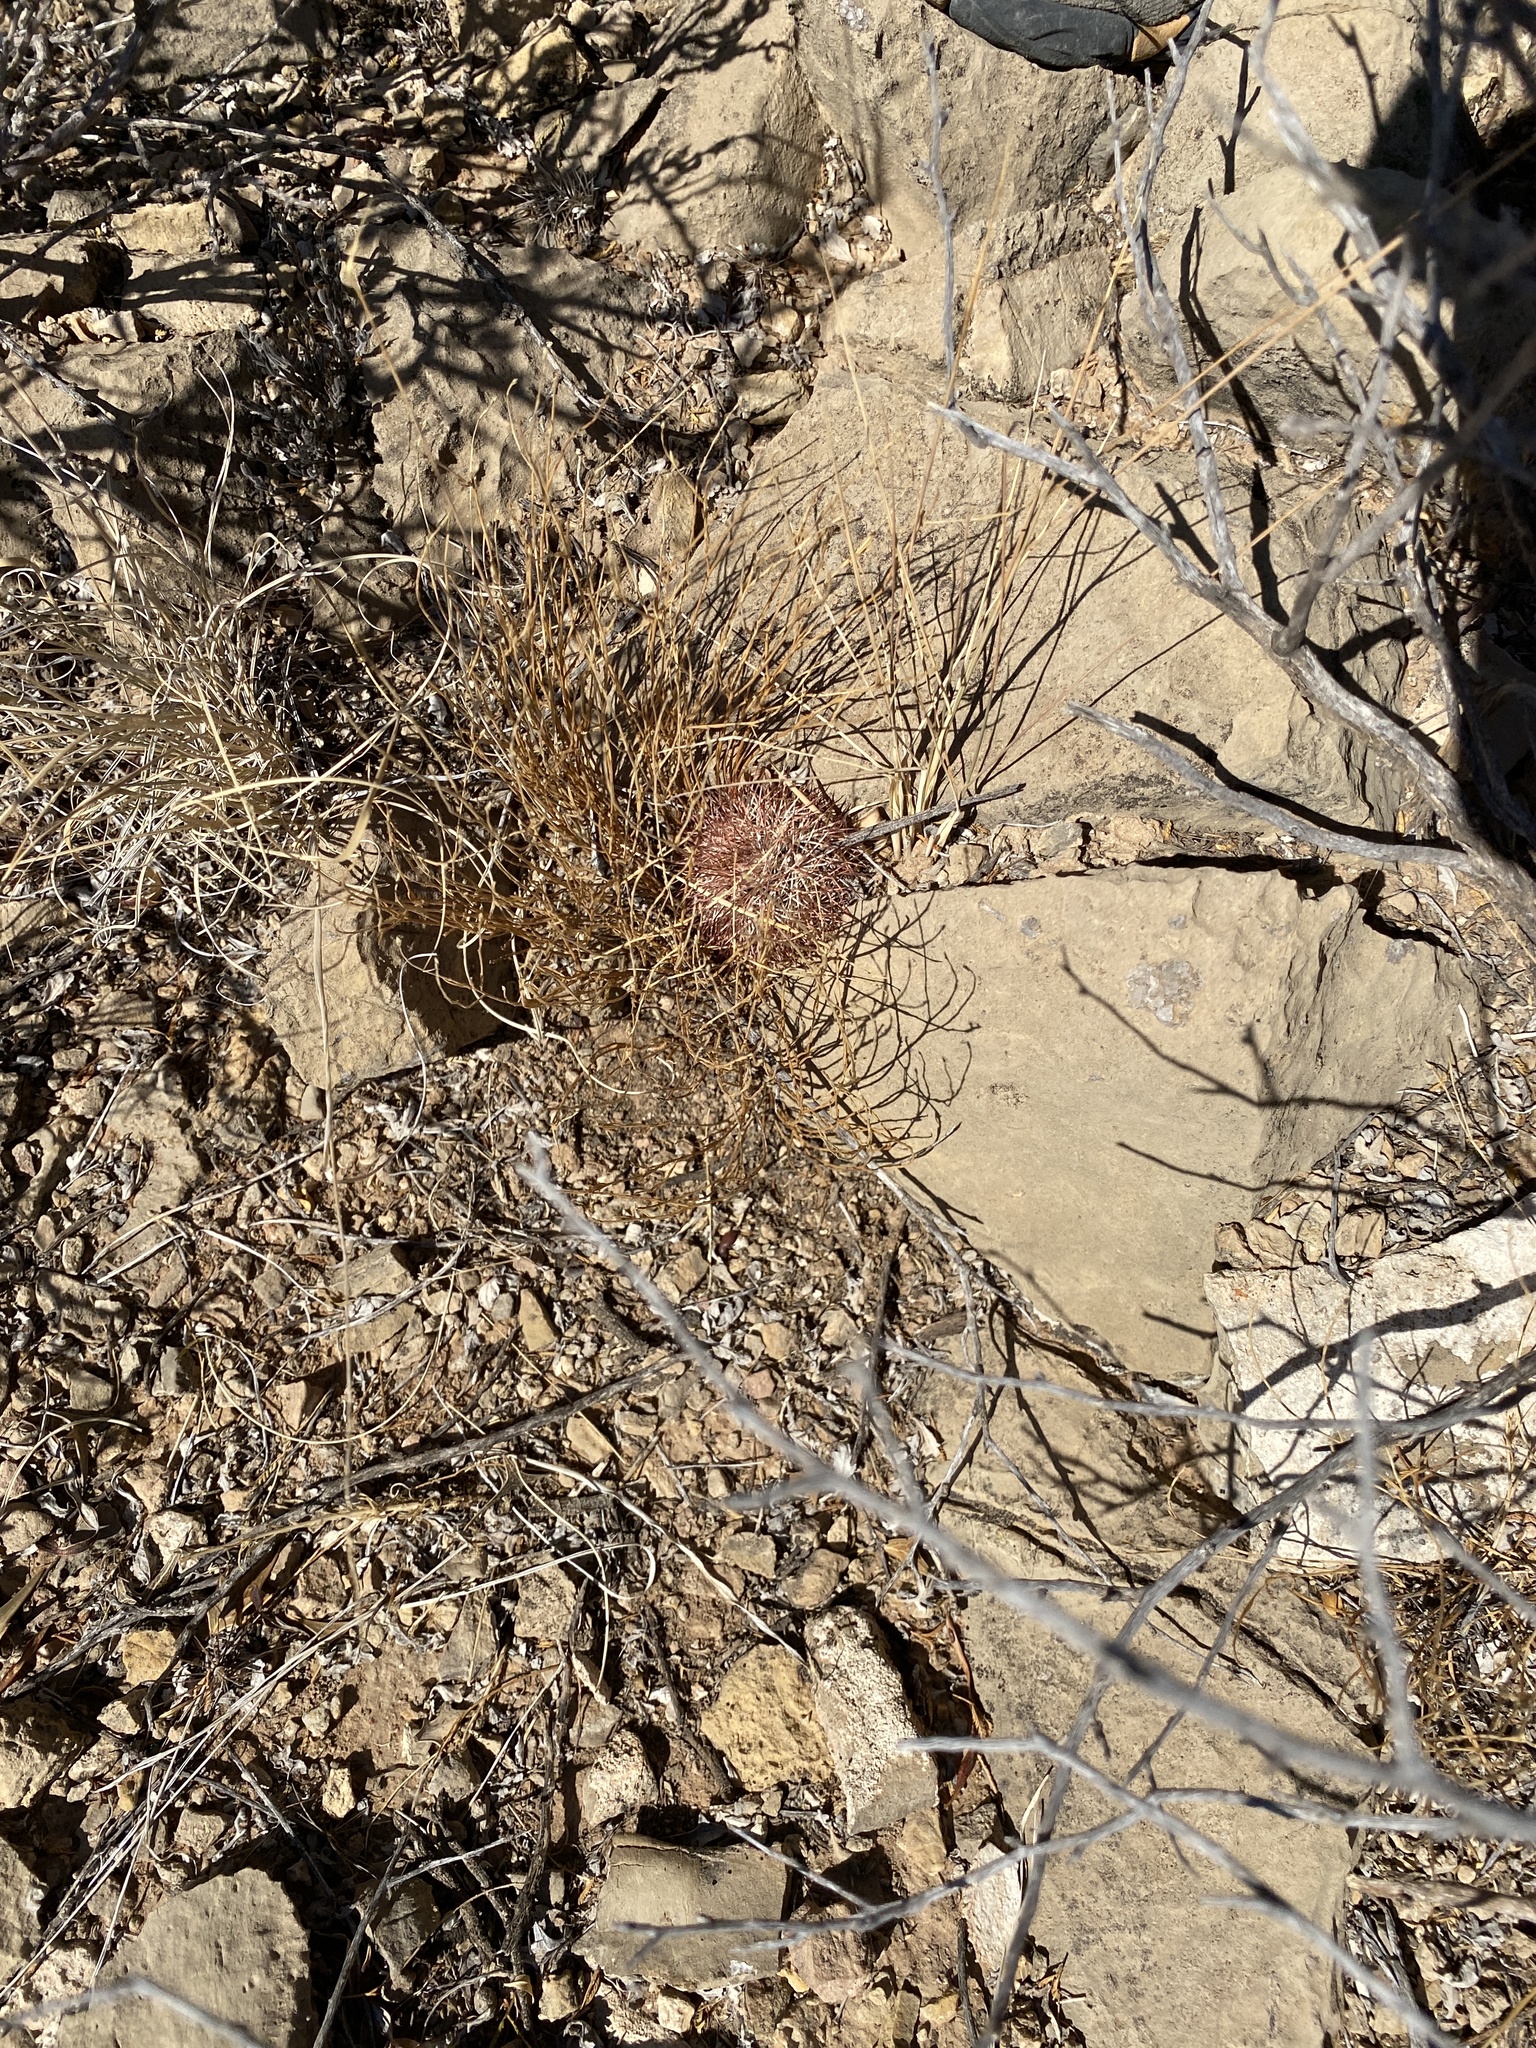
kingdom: Plantae
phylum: Tracheophyta
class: Magnoliopsida
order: Caryophyllales
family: Cactaceae
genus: Echinocereus
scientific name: Echinocereus dasyacanthus
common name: Spiny hedgehog cactus
